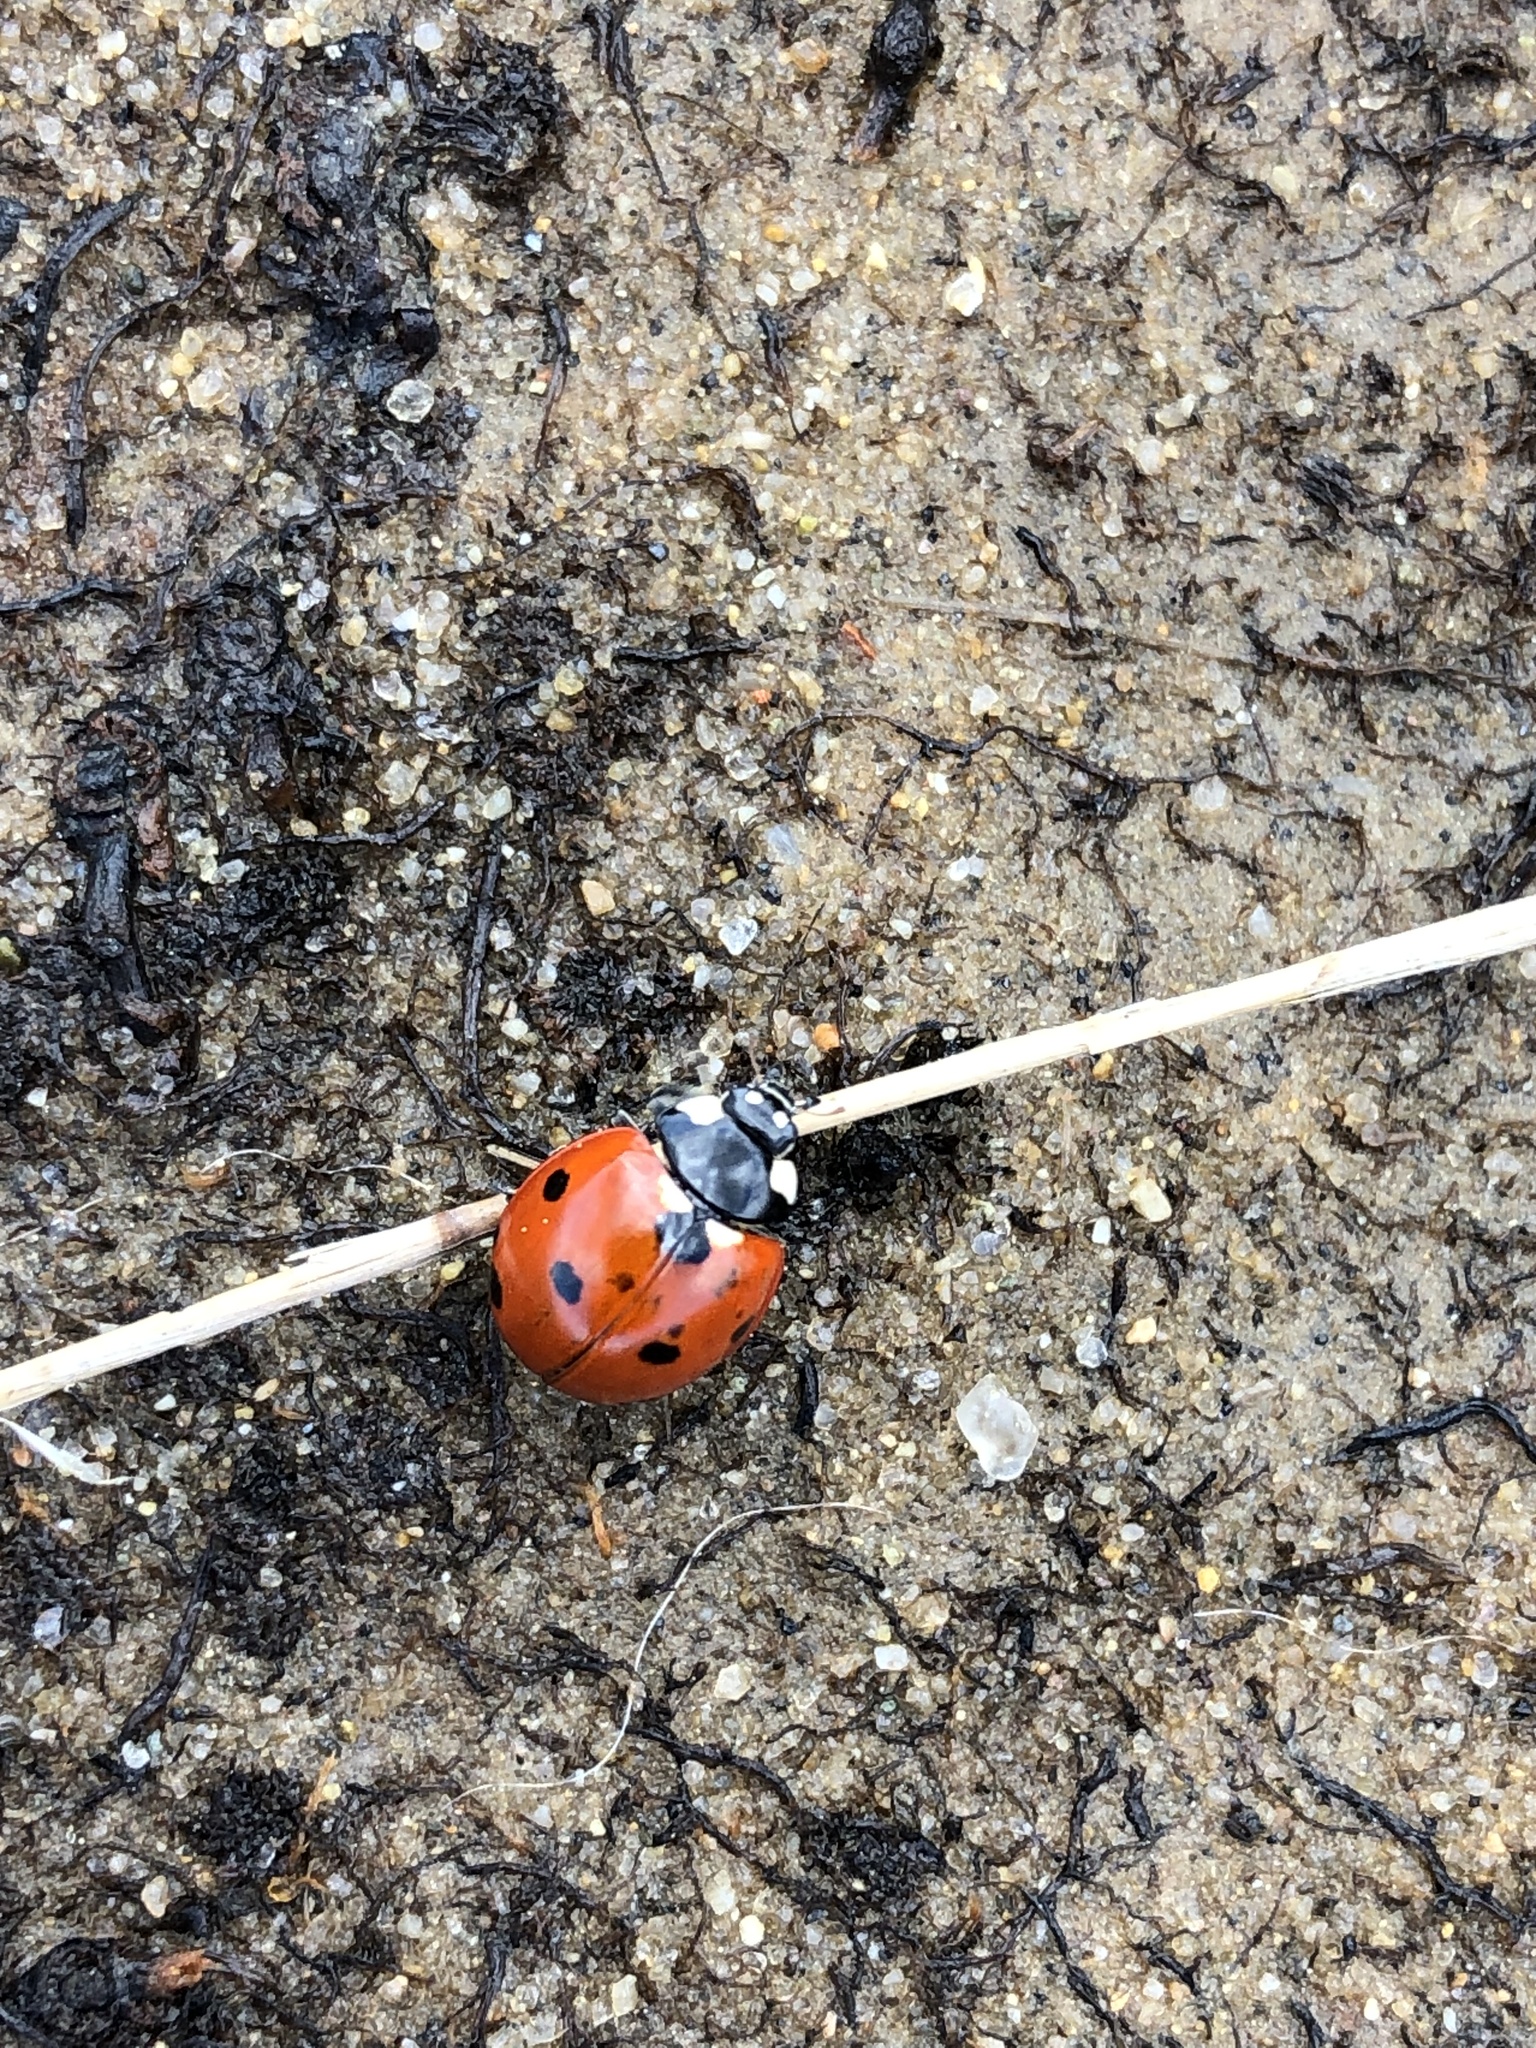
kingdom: Animalia
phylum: Arthropoda
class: Insecta
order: Coleoptera
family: Coccinellidae
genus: Coccinella
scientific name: Coccinella septempunctata
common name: Sevenspotted lady beetle
